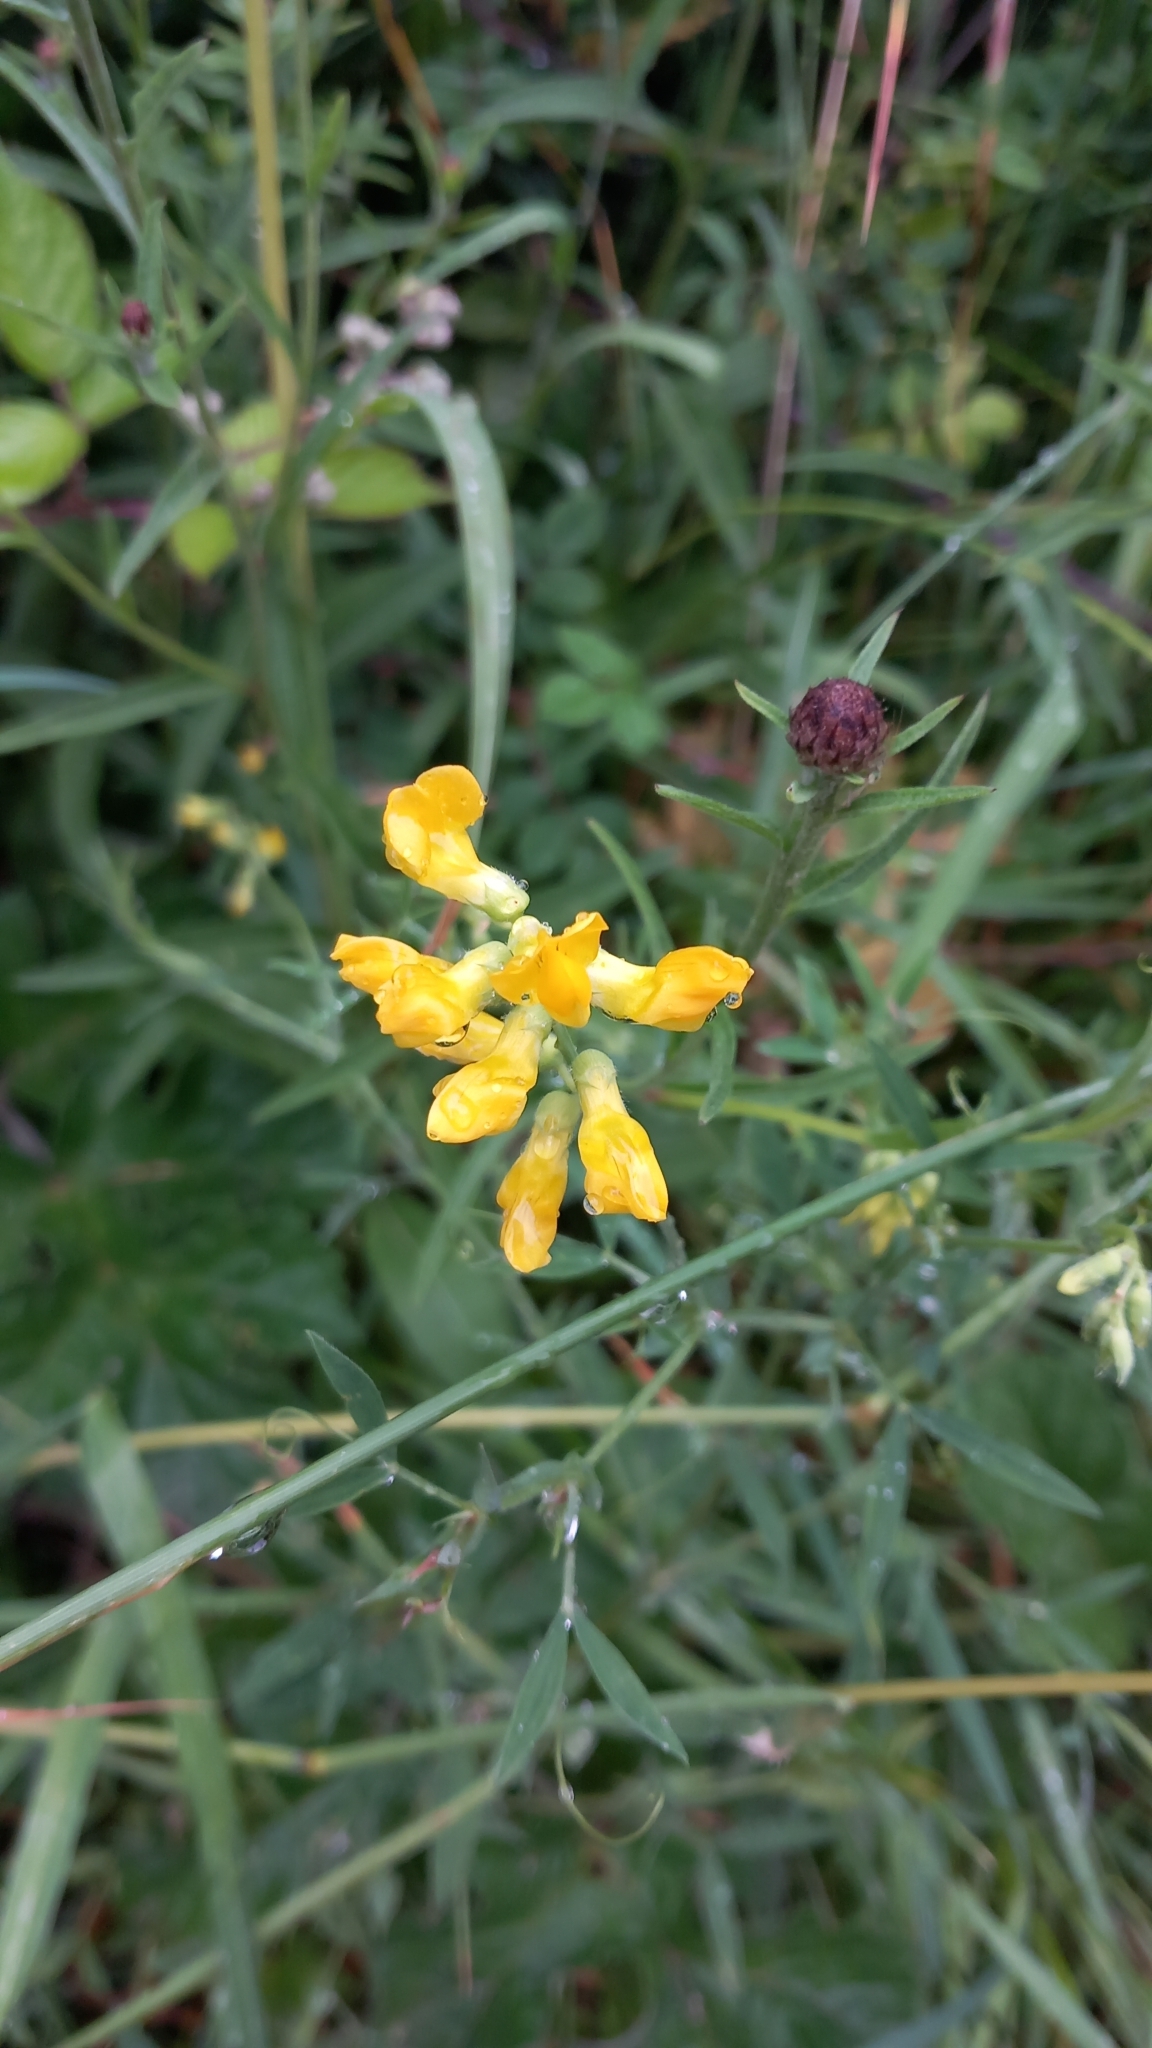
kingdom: Plantae
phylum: Tracheophyta
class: Magnoliopsida
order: Fabales
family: Fabaceae
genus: Lathyrus
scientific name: Lathyrus pratensis
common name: Meadow vetchling
